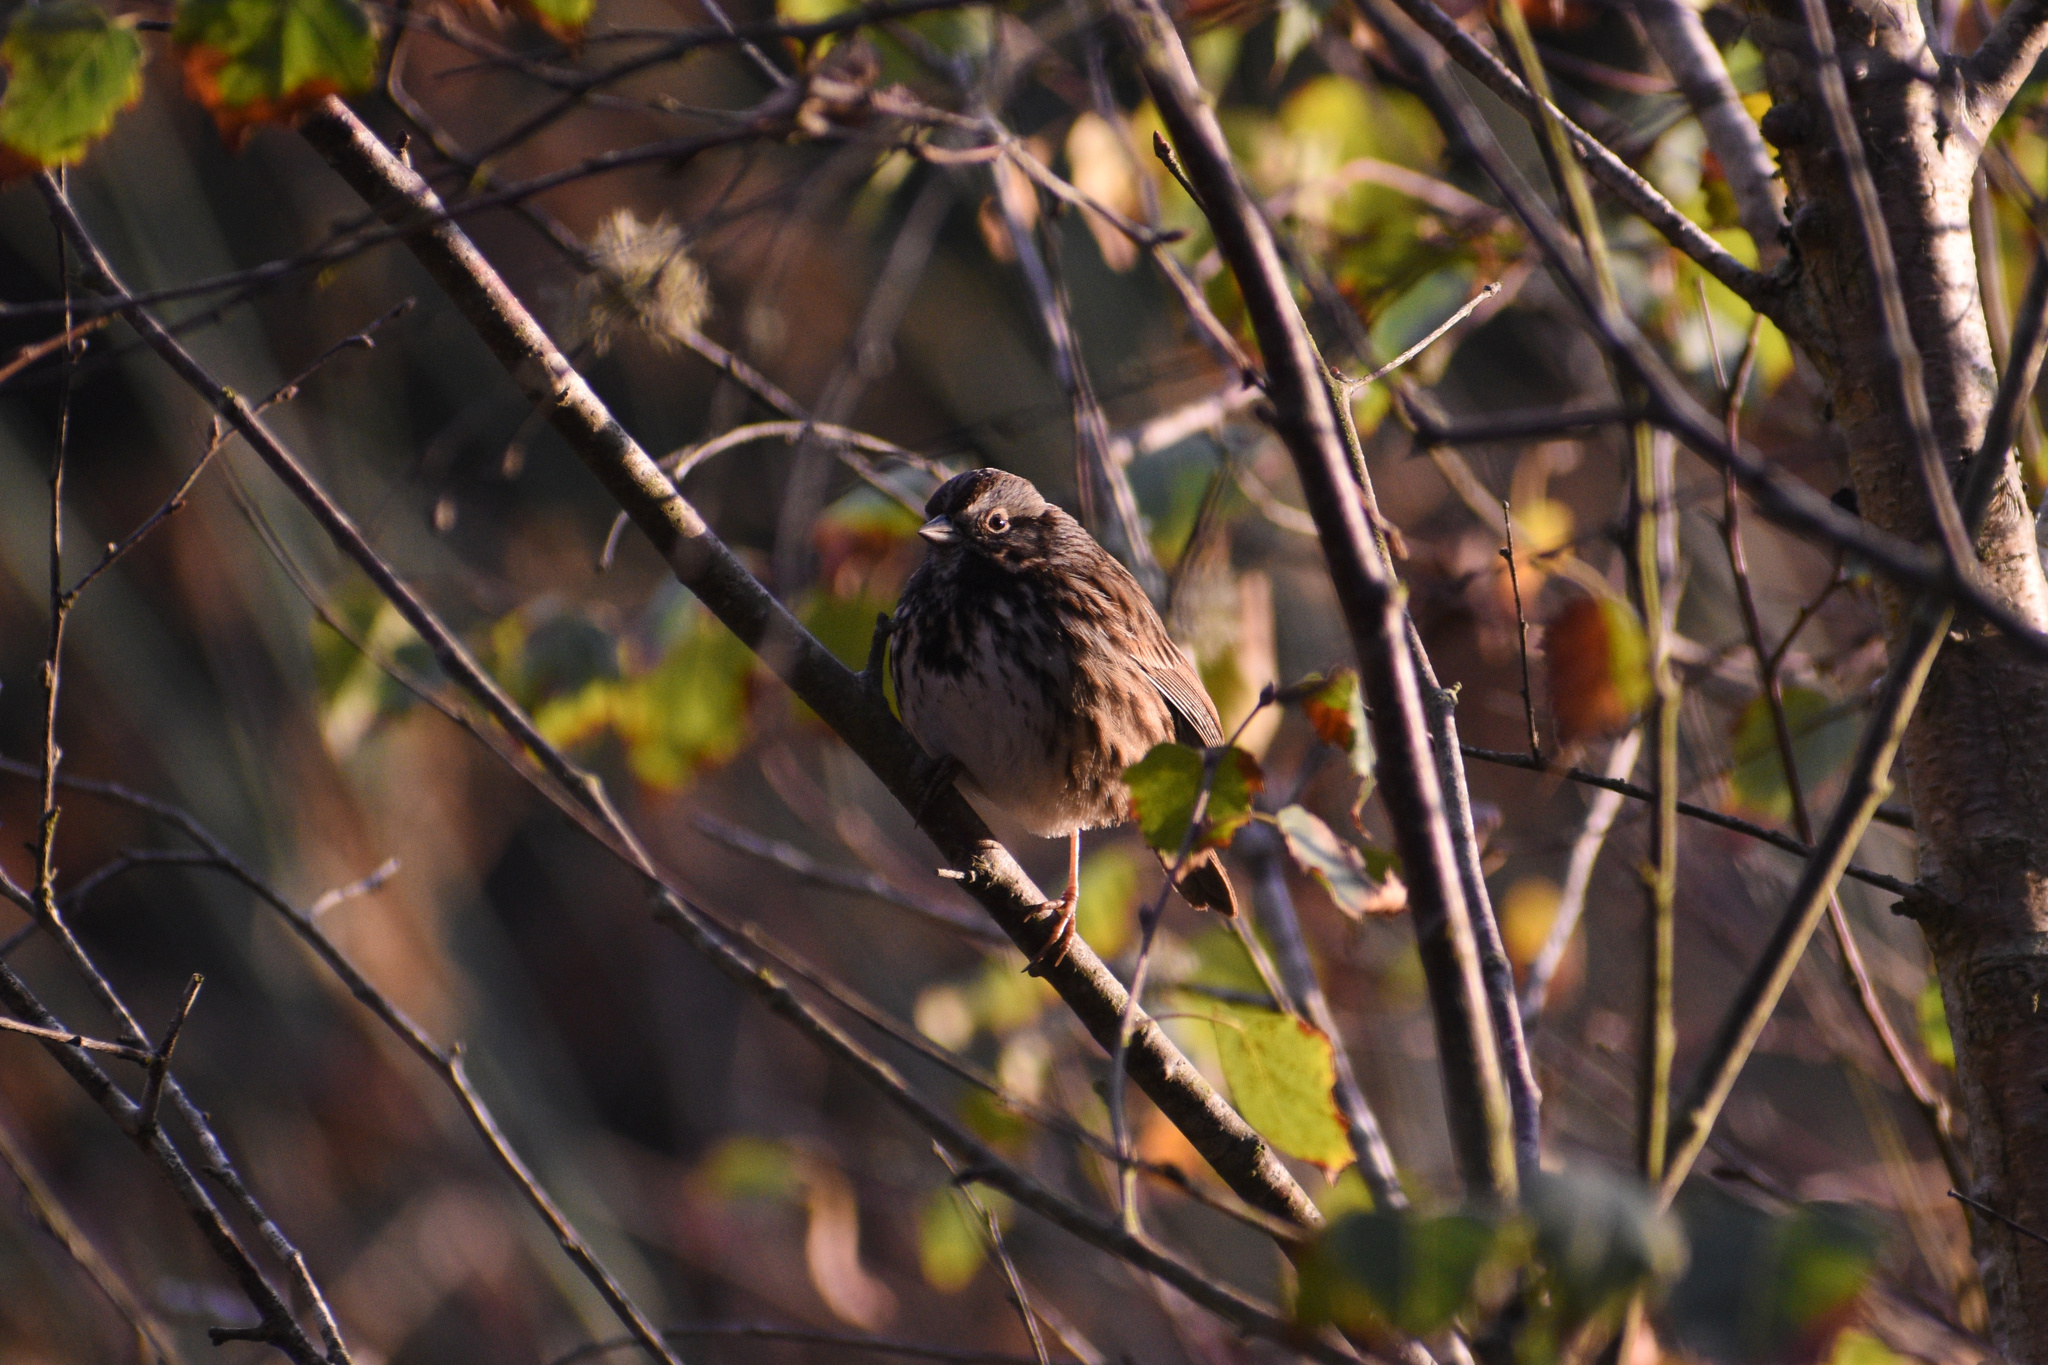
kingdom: Animalia
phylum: Chordata
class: Aves
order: Passeriformes
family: Passerellidae
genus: Melospiza
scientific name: Melospiza melodia
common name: Song sparrow
